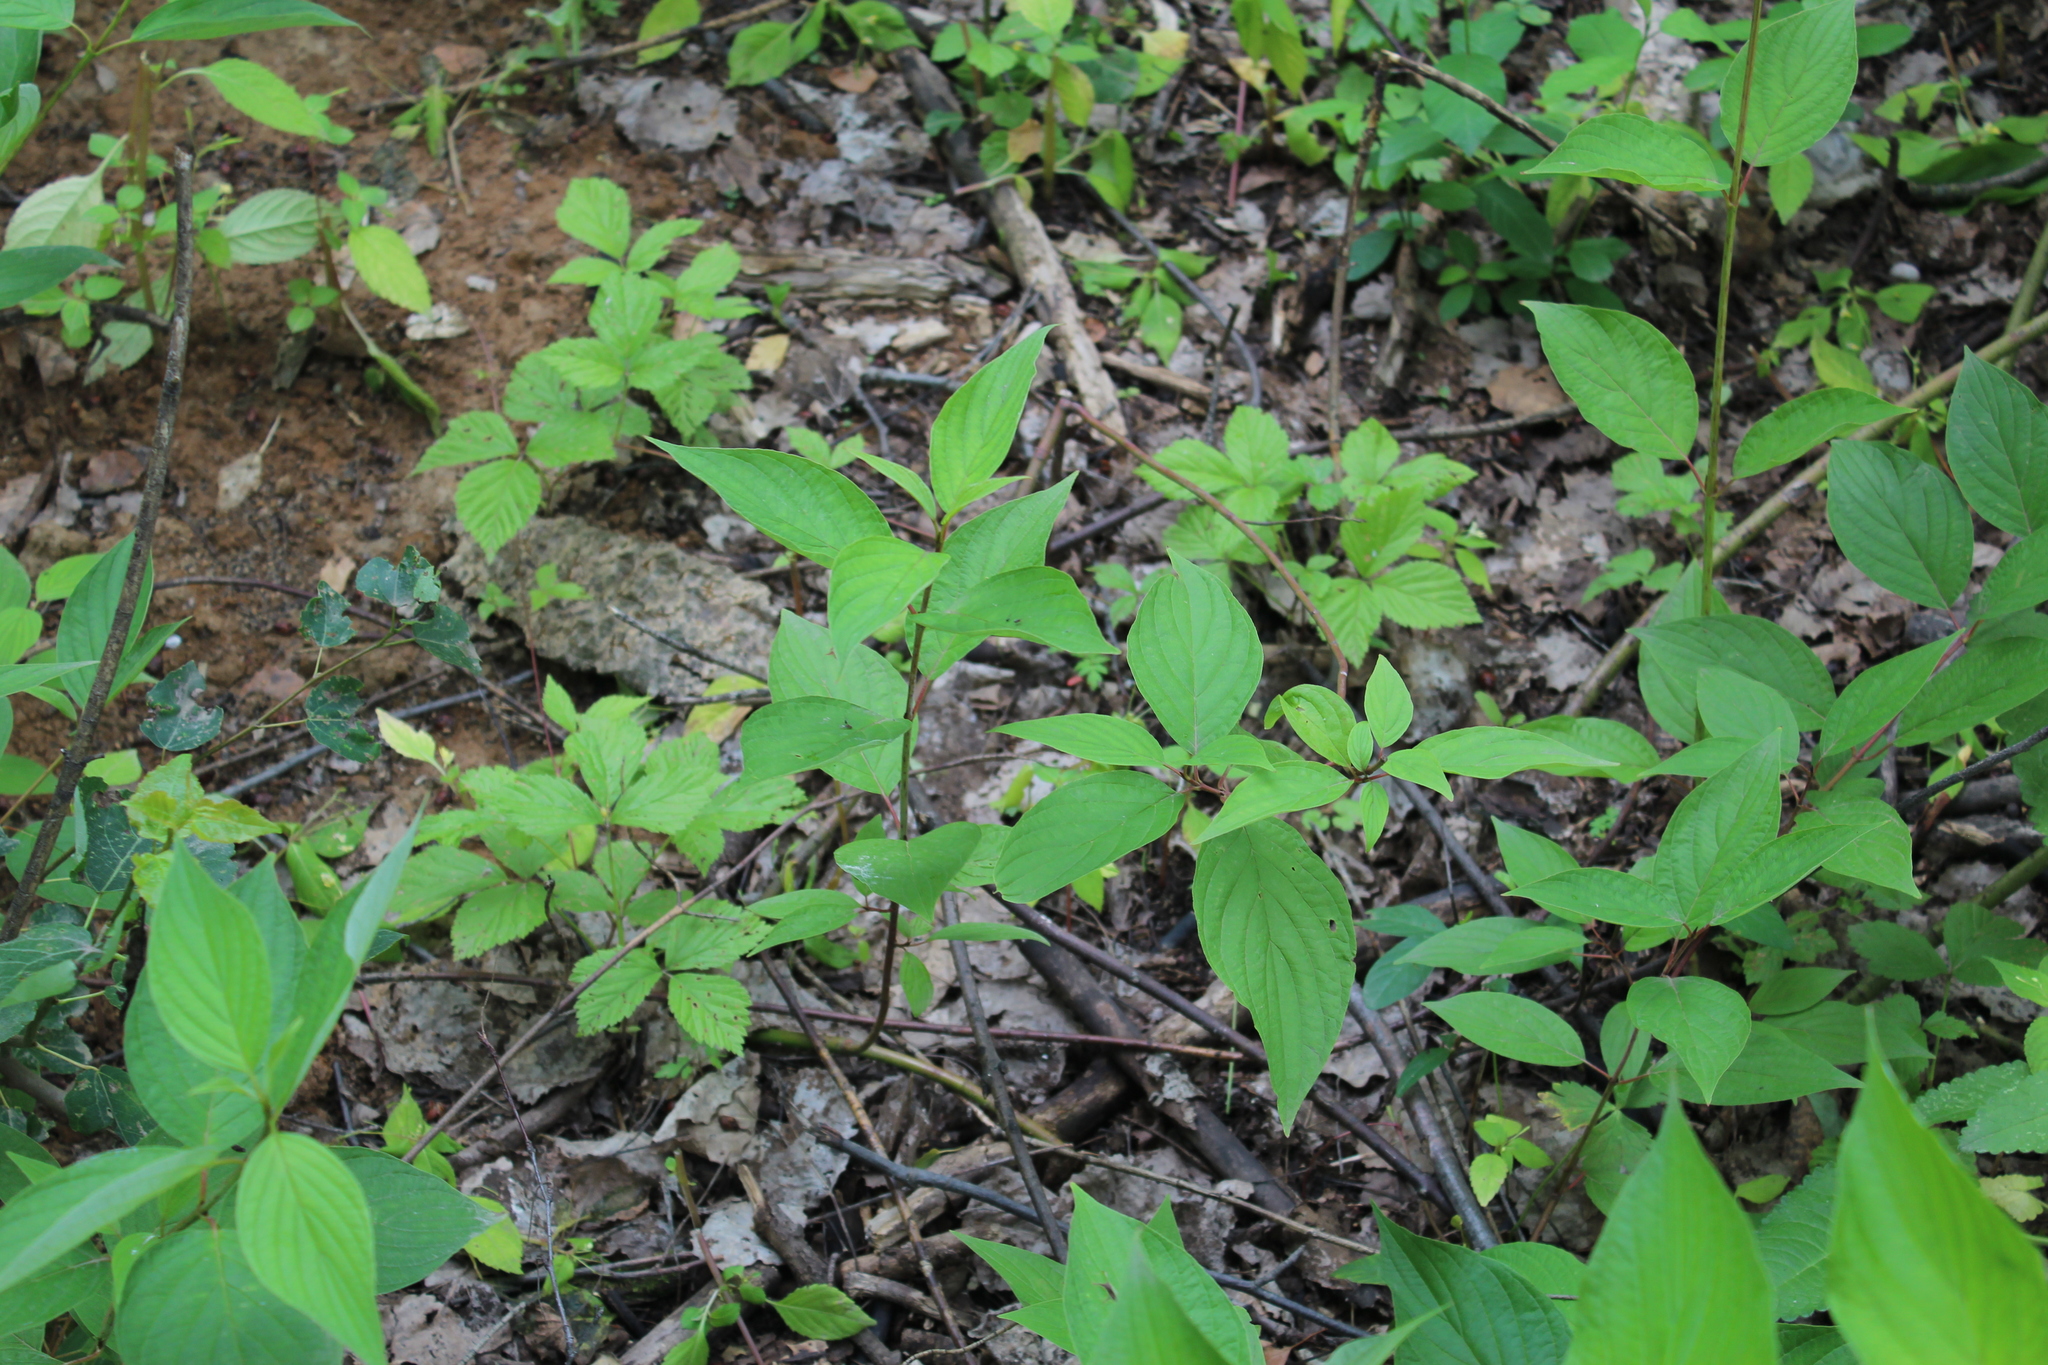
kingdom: Plantae
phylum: Tracheophyta
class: Magnoliopsida
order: Cornales
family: Cornaceae
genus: Cornus
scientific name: Cornus alba
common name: White dogwood
